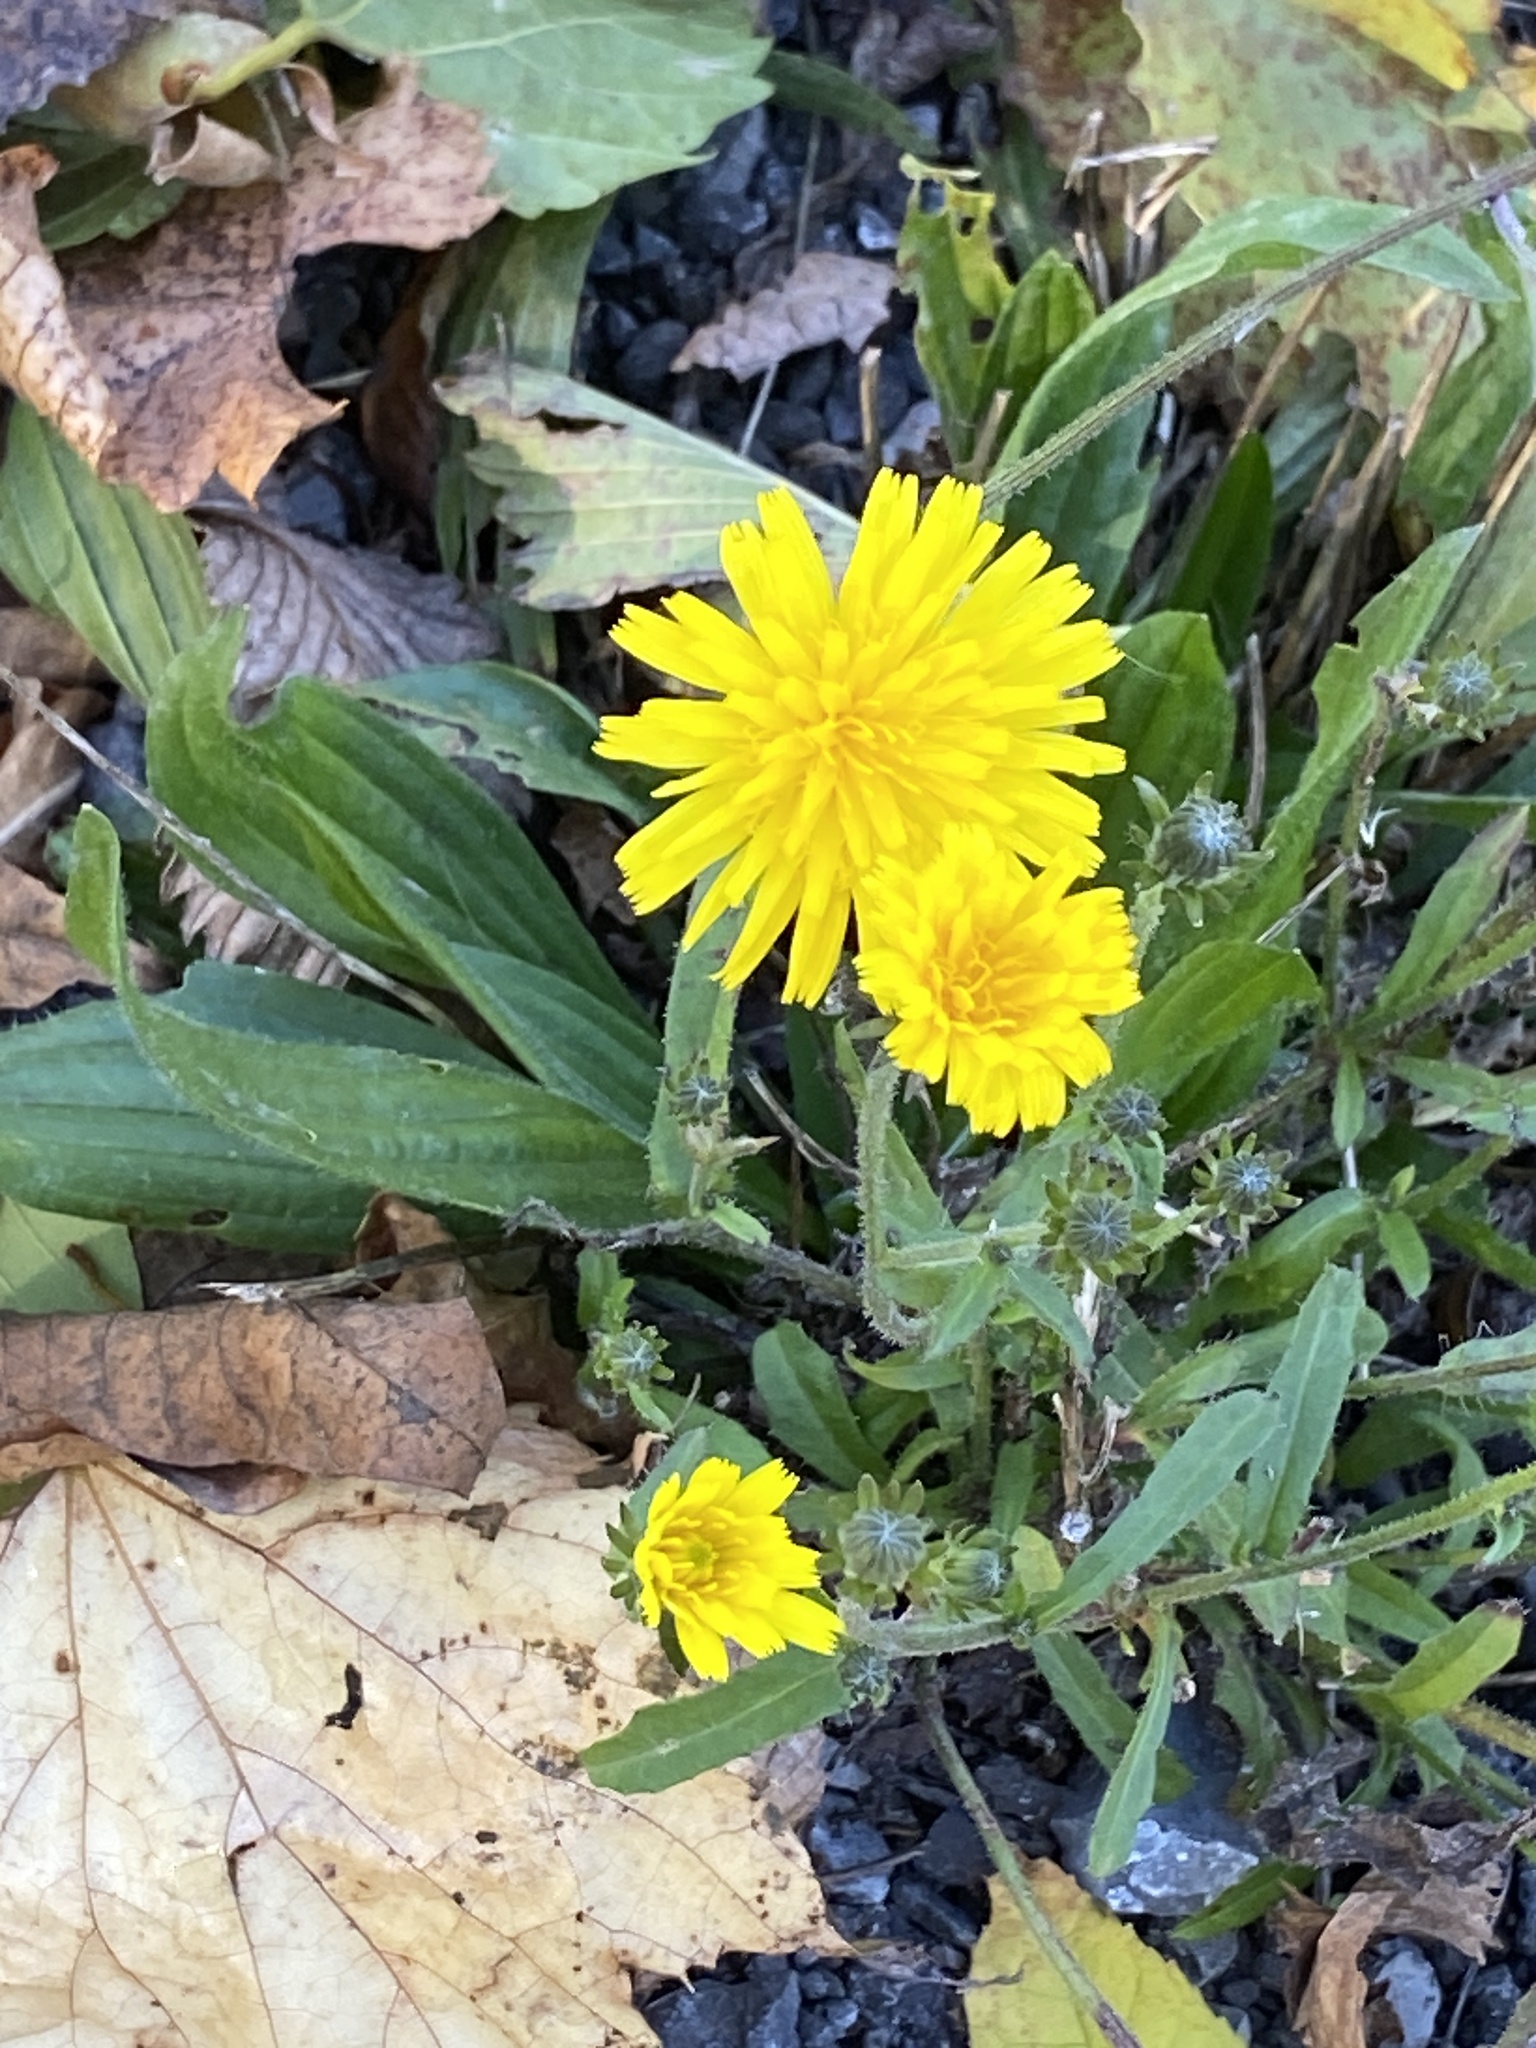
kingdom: Plantae
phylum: Tracheophyta
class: Magnoliopsida
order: Asterales
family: Asteraceae
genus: Picris
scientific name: Picris hieracioides
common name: Hawkweed oxtongue
